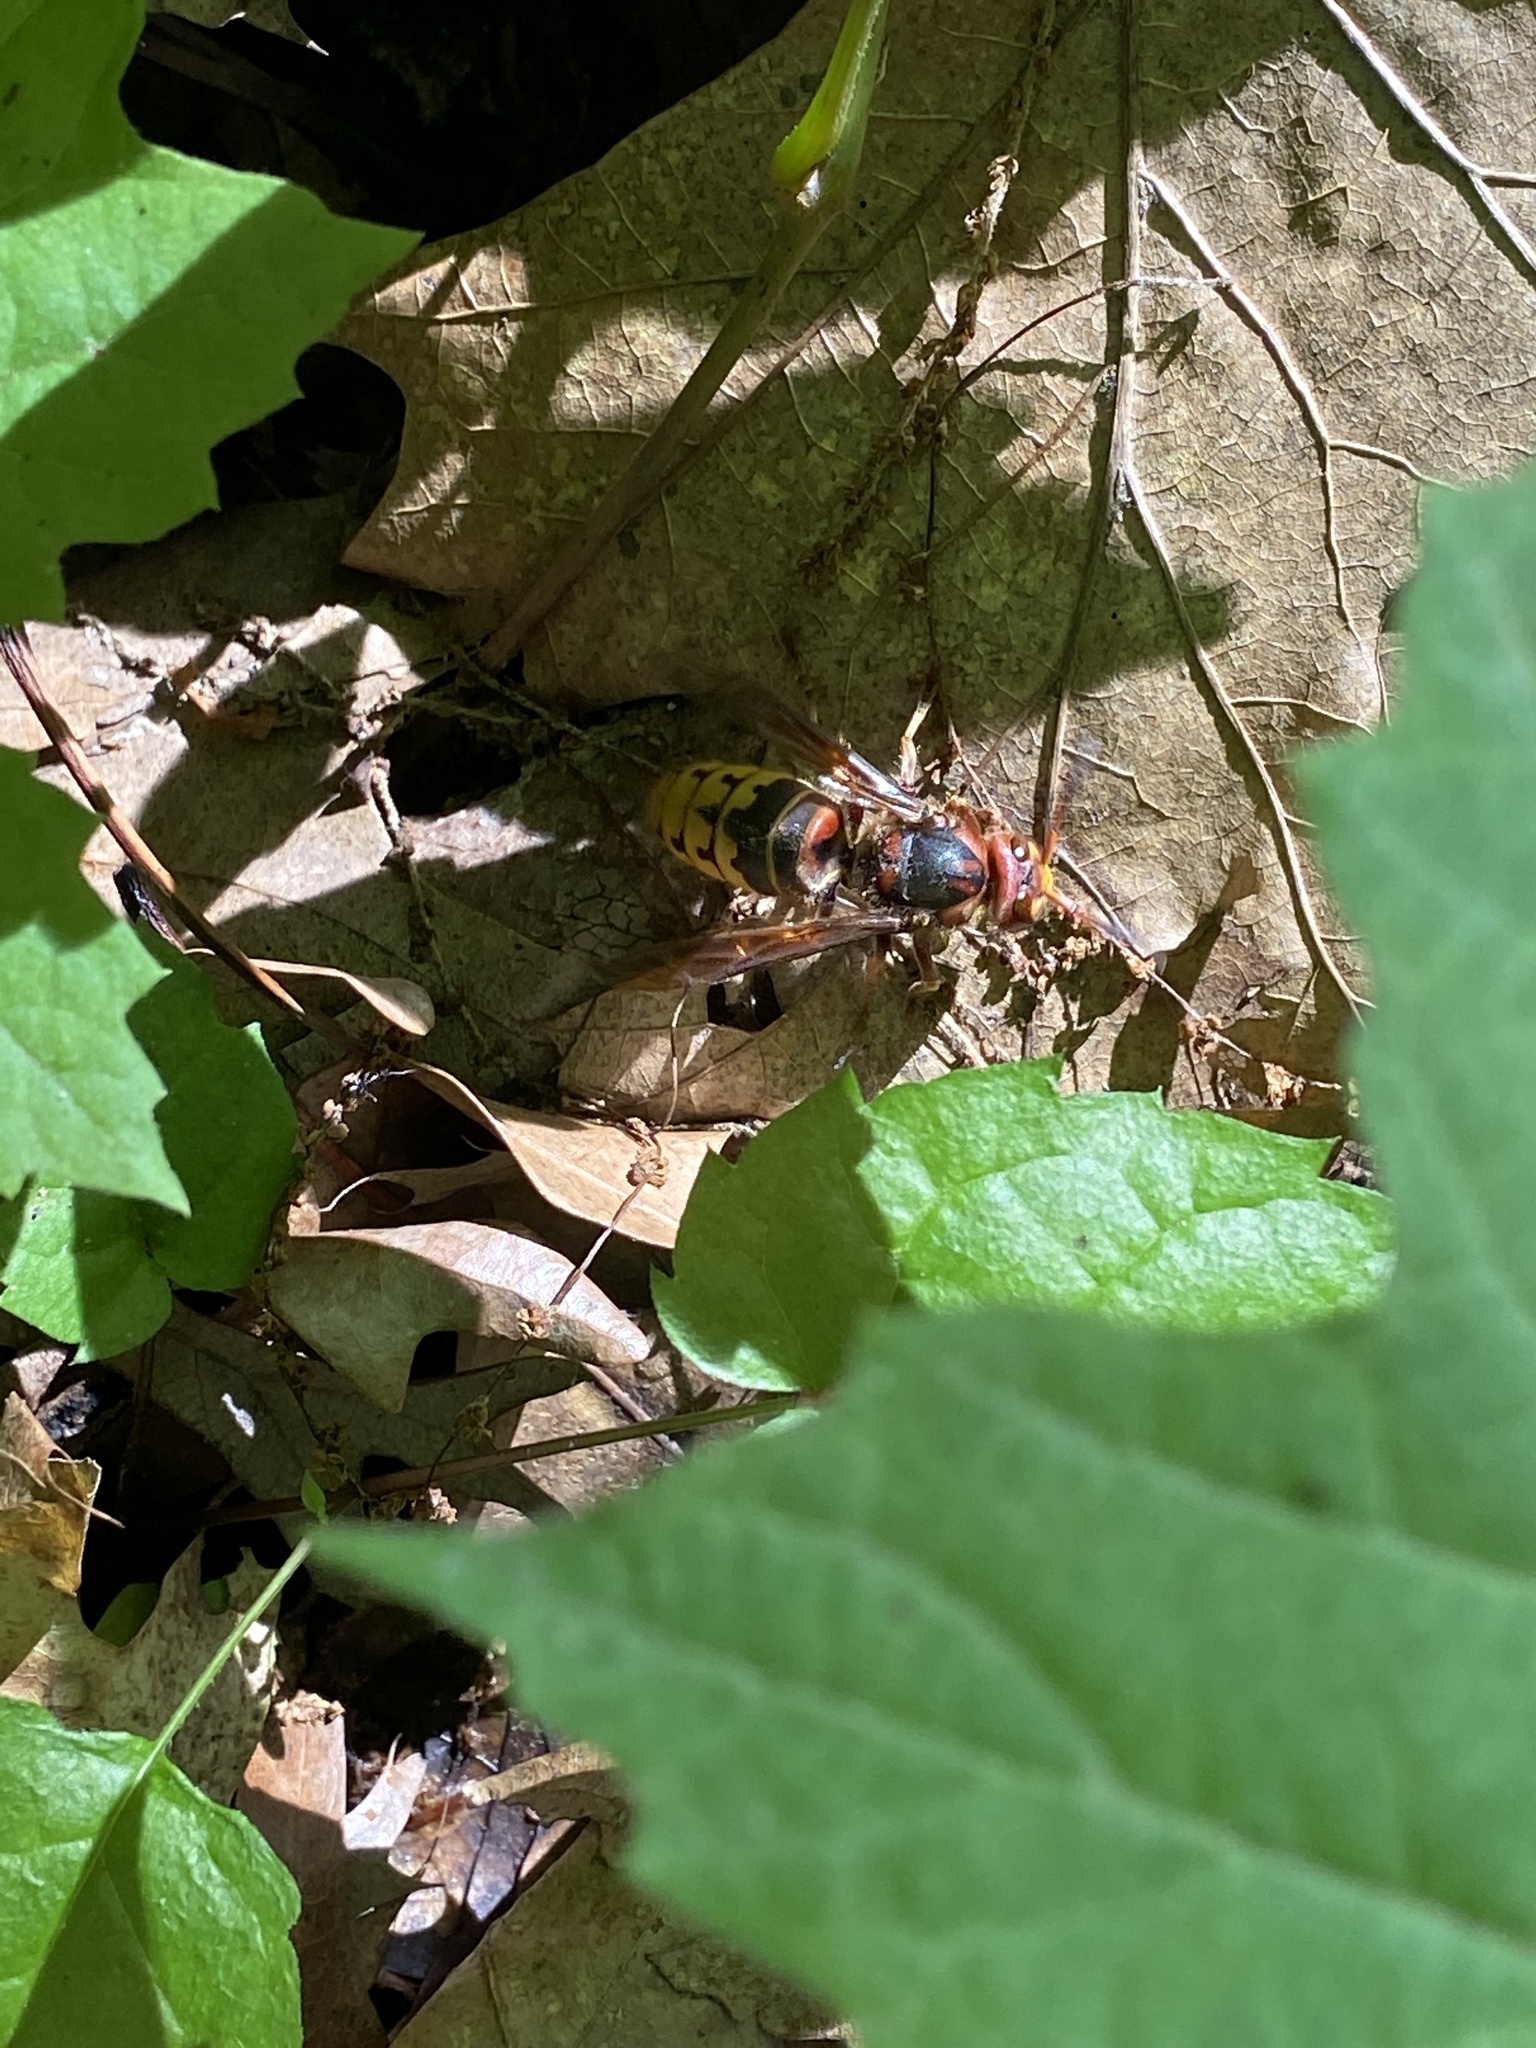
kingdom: Animalia
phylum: Arthropoda
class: Insecta
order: Hymenoptera
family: Vespidae
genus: Vespa
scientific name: Vespa crabro
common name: Hornet
